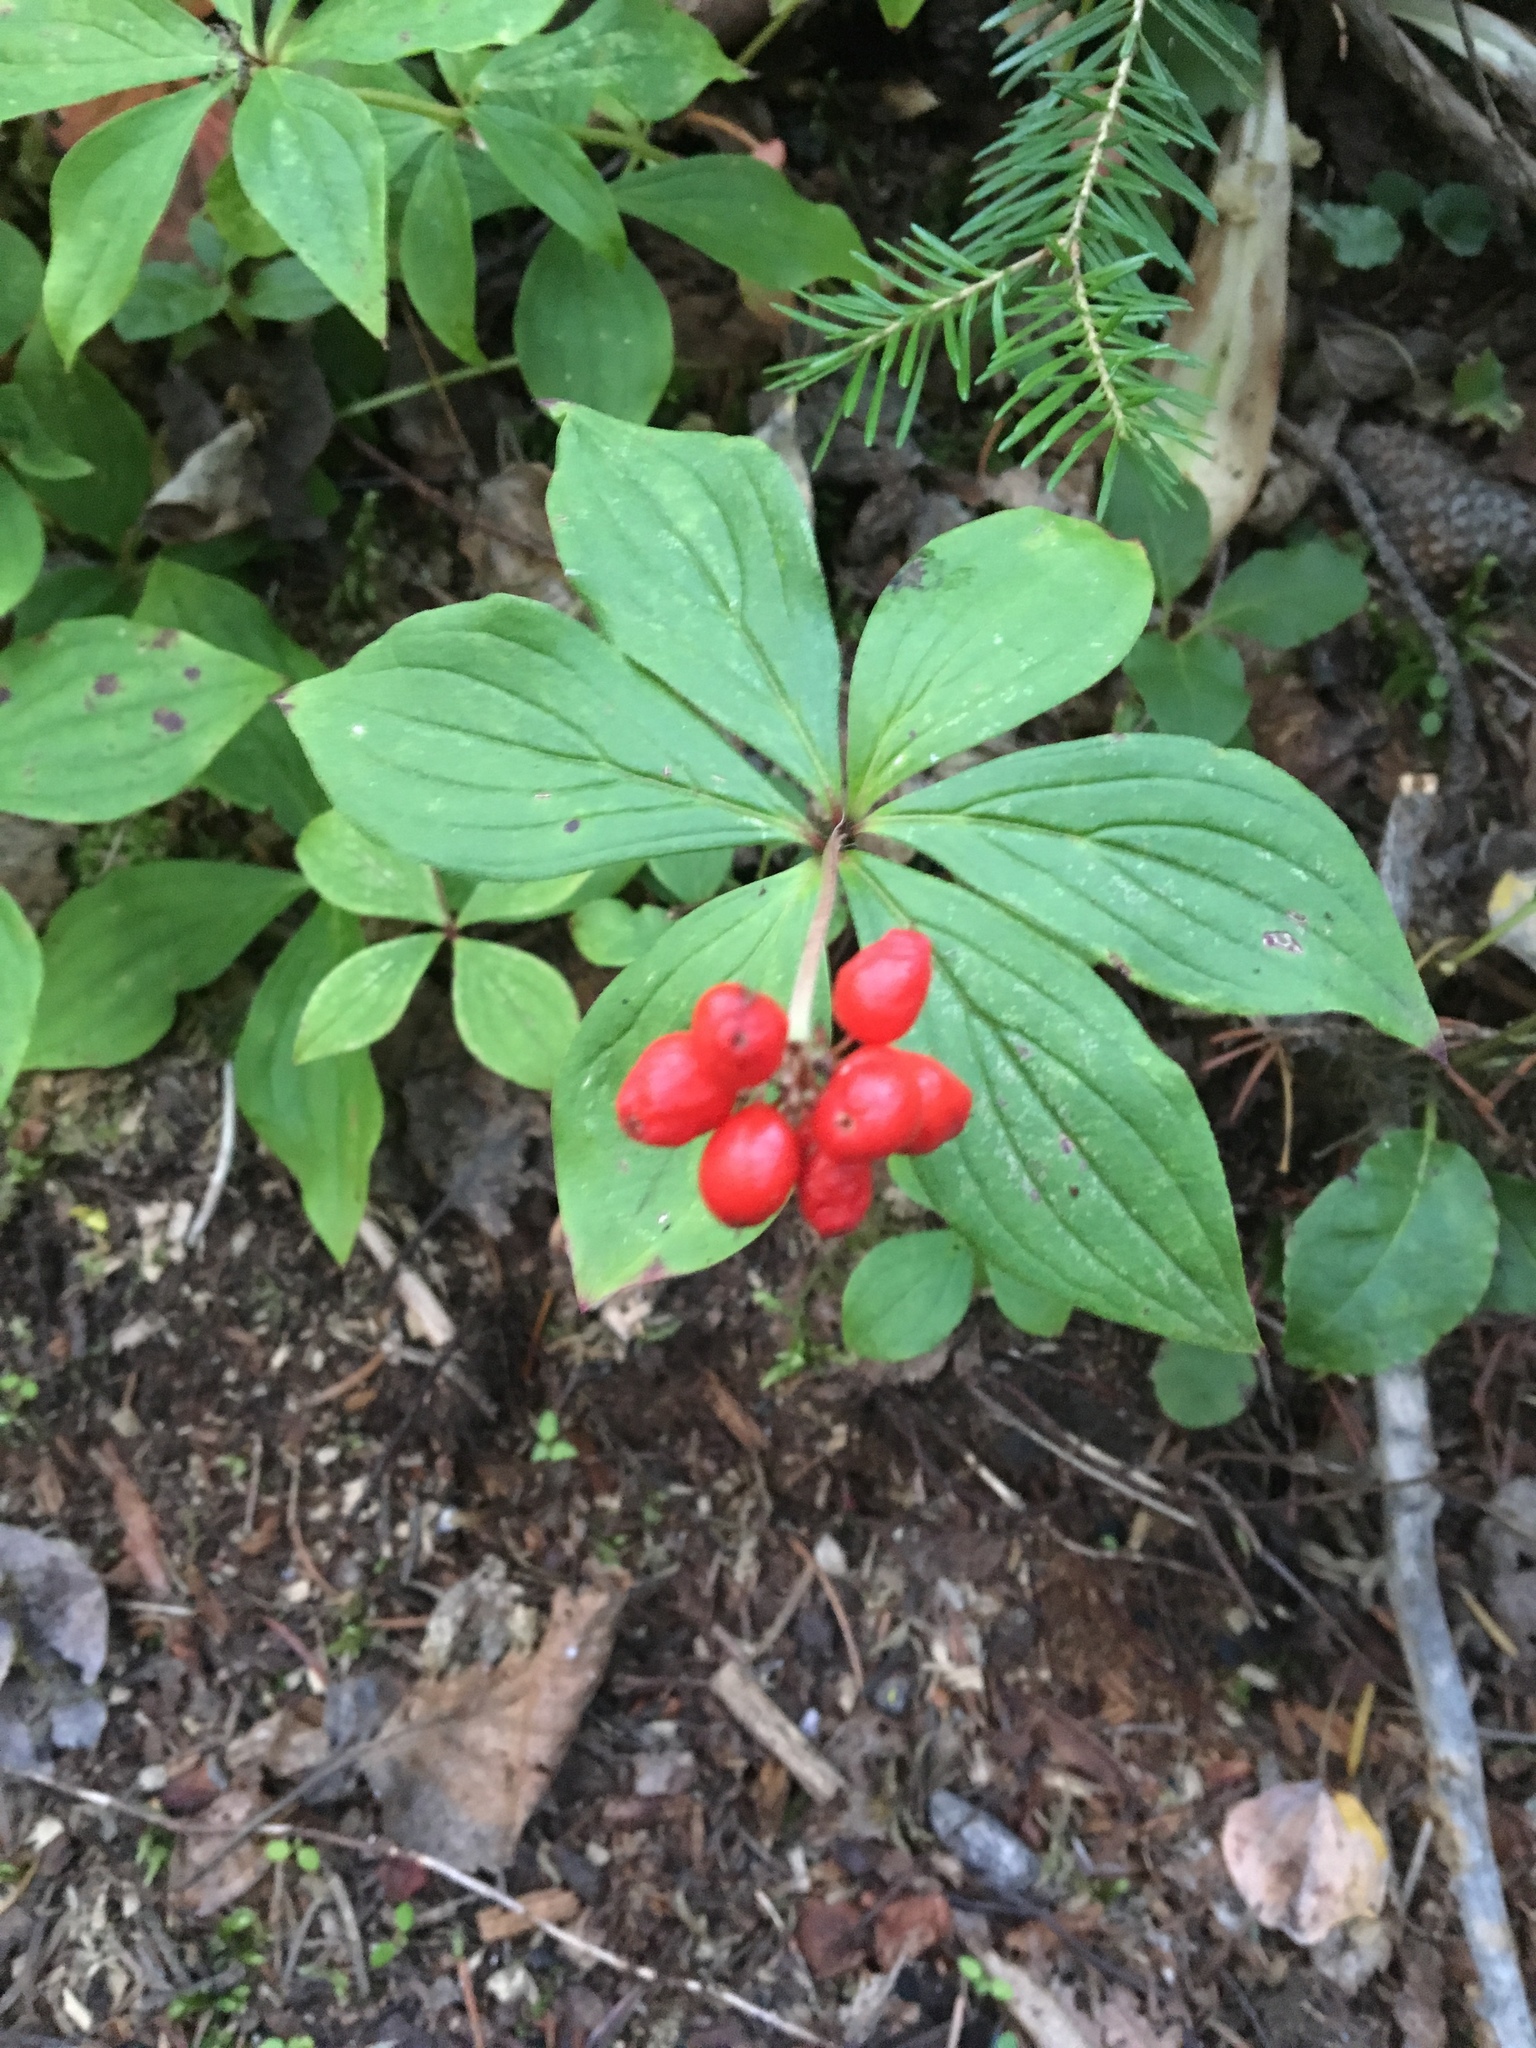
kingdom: Plantae
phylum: Tracheophyta
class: Magnoliopsida
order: Cornales
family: Cornaceae
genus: Cornus
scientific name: Cornus canadensis
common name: Creeping dogwood
